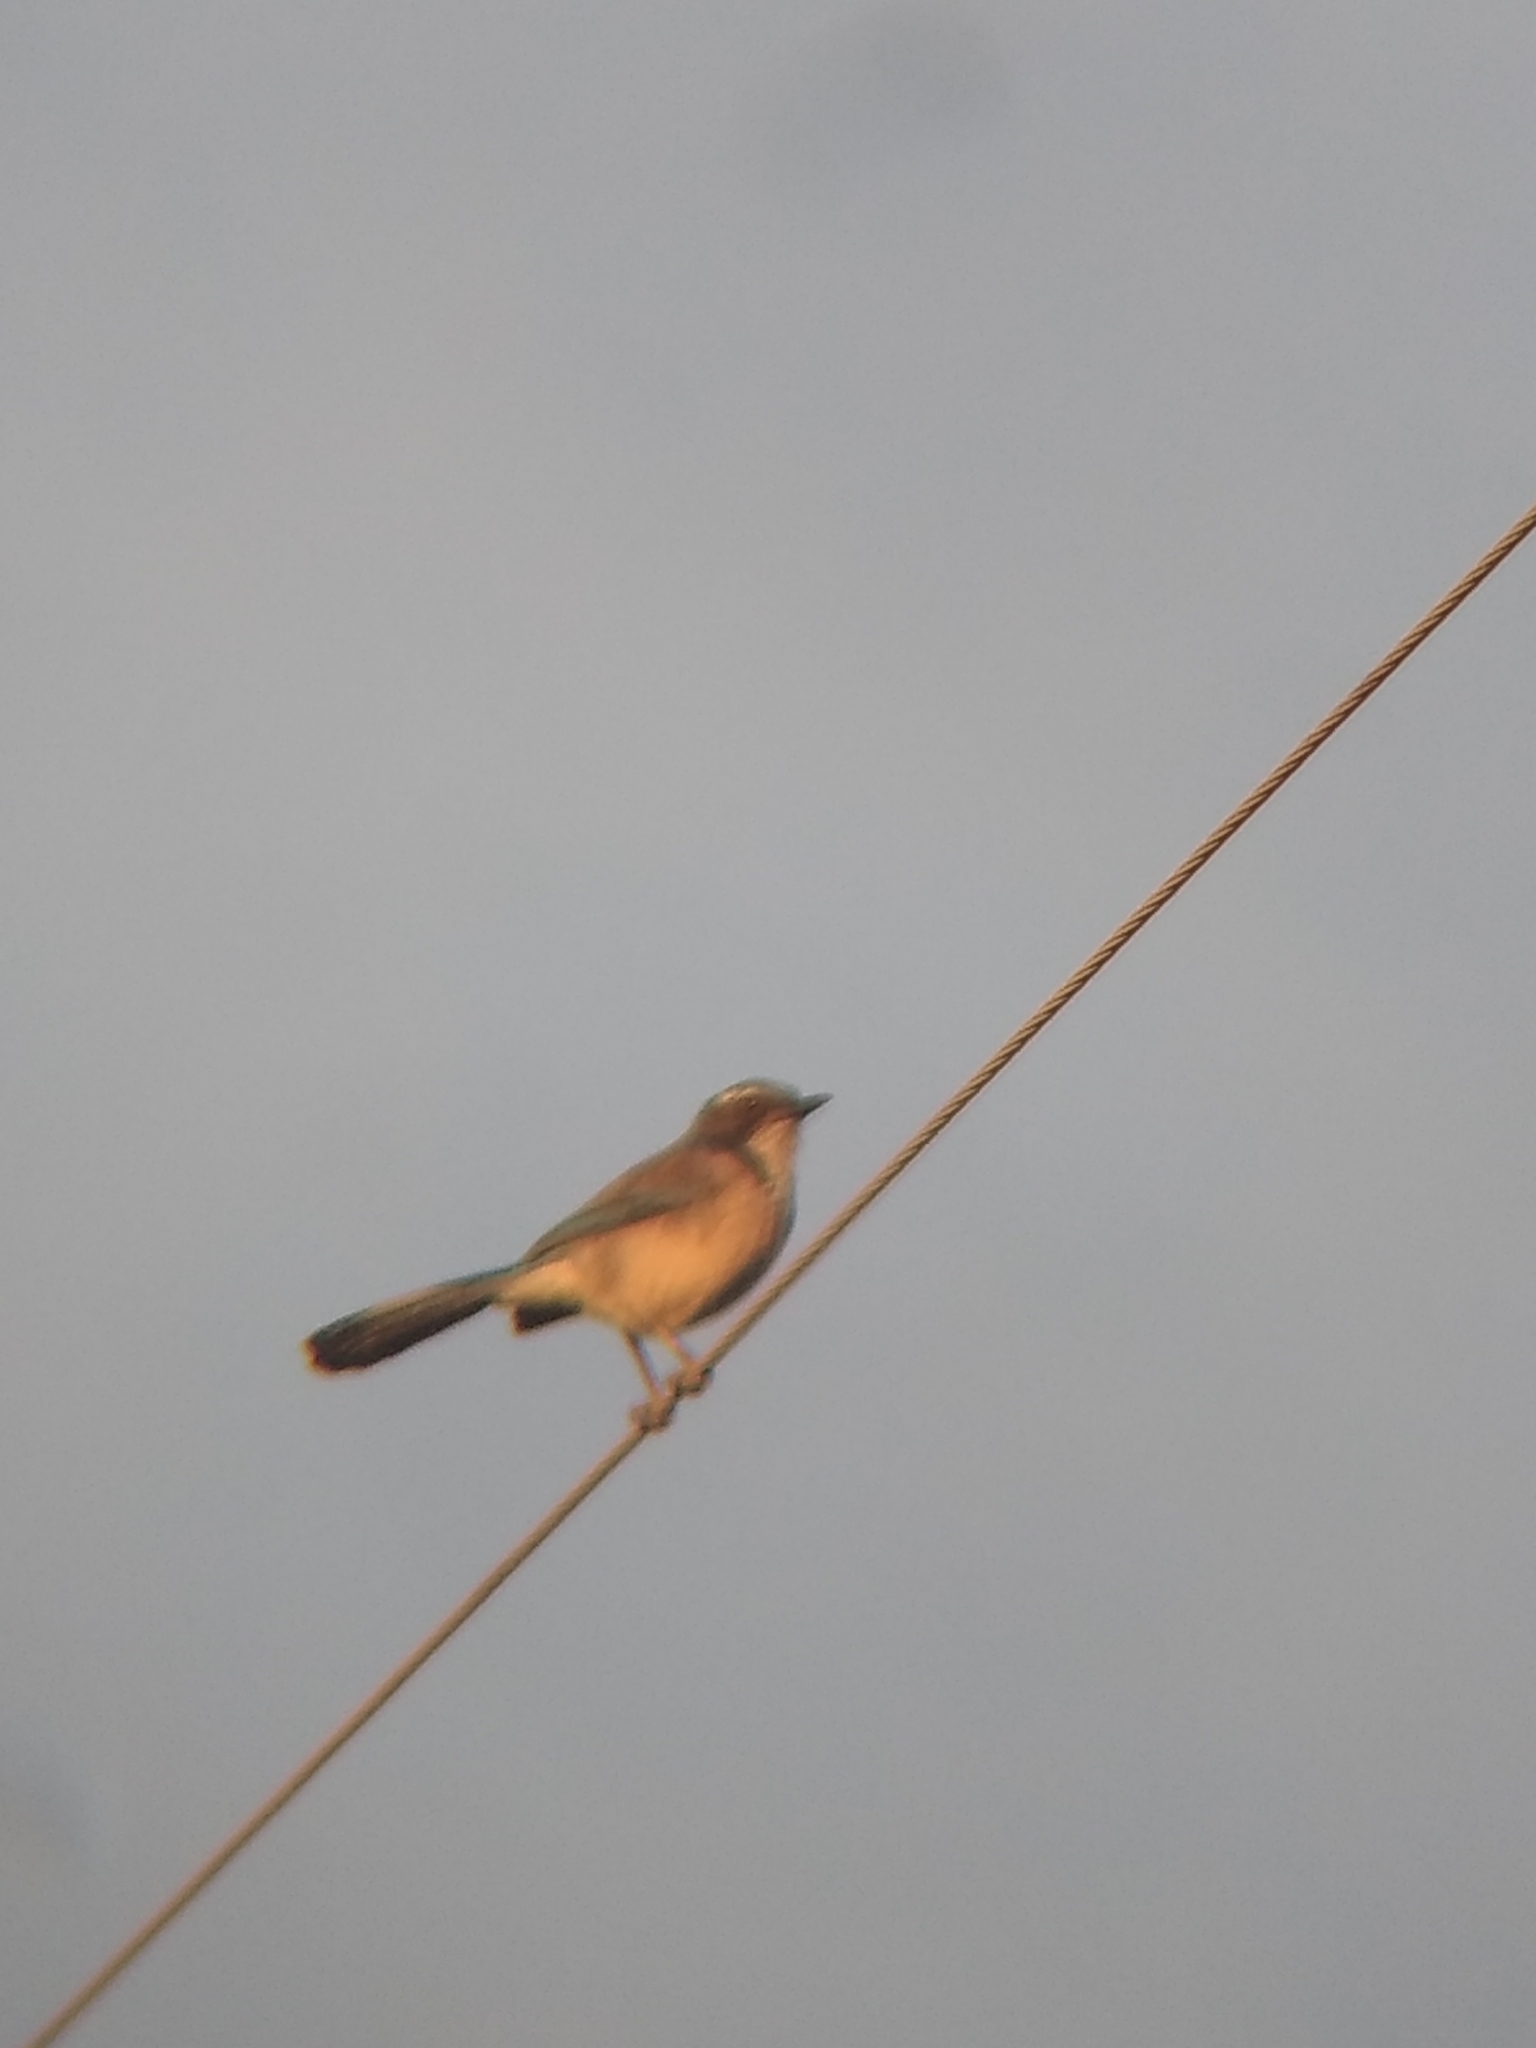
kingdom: Animalia
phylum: Chordata
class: Aves
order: Passeriformes
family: Corvidae
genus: Aphelocoma
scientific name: Aphelocoma californica
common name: California scrub-jay
